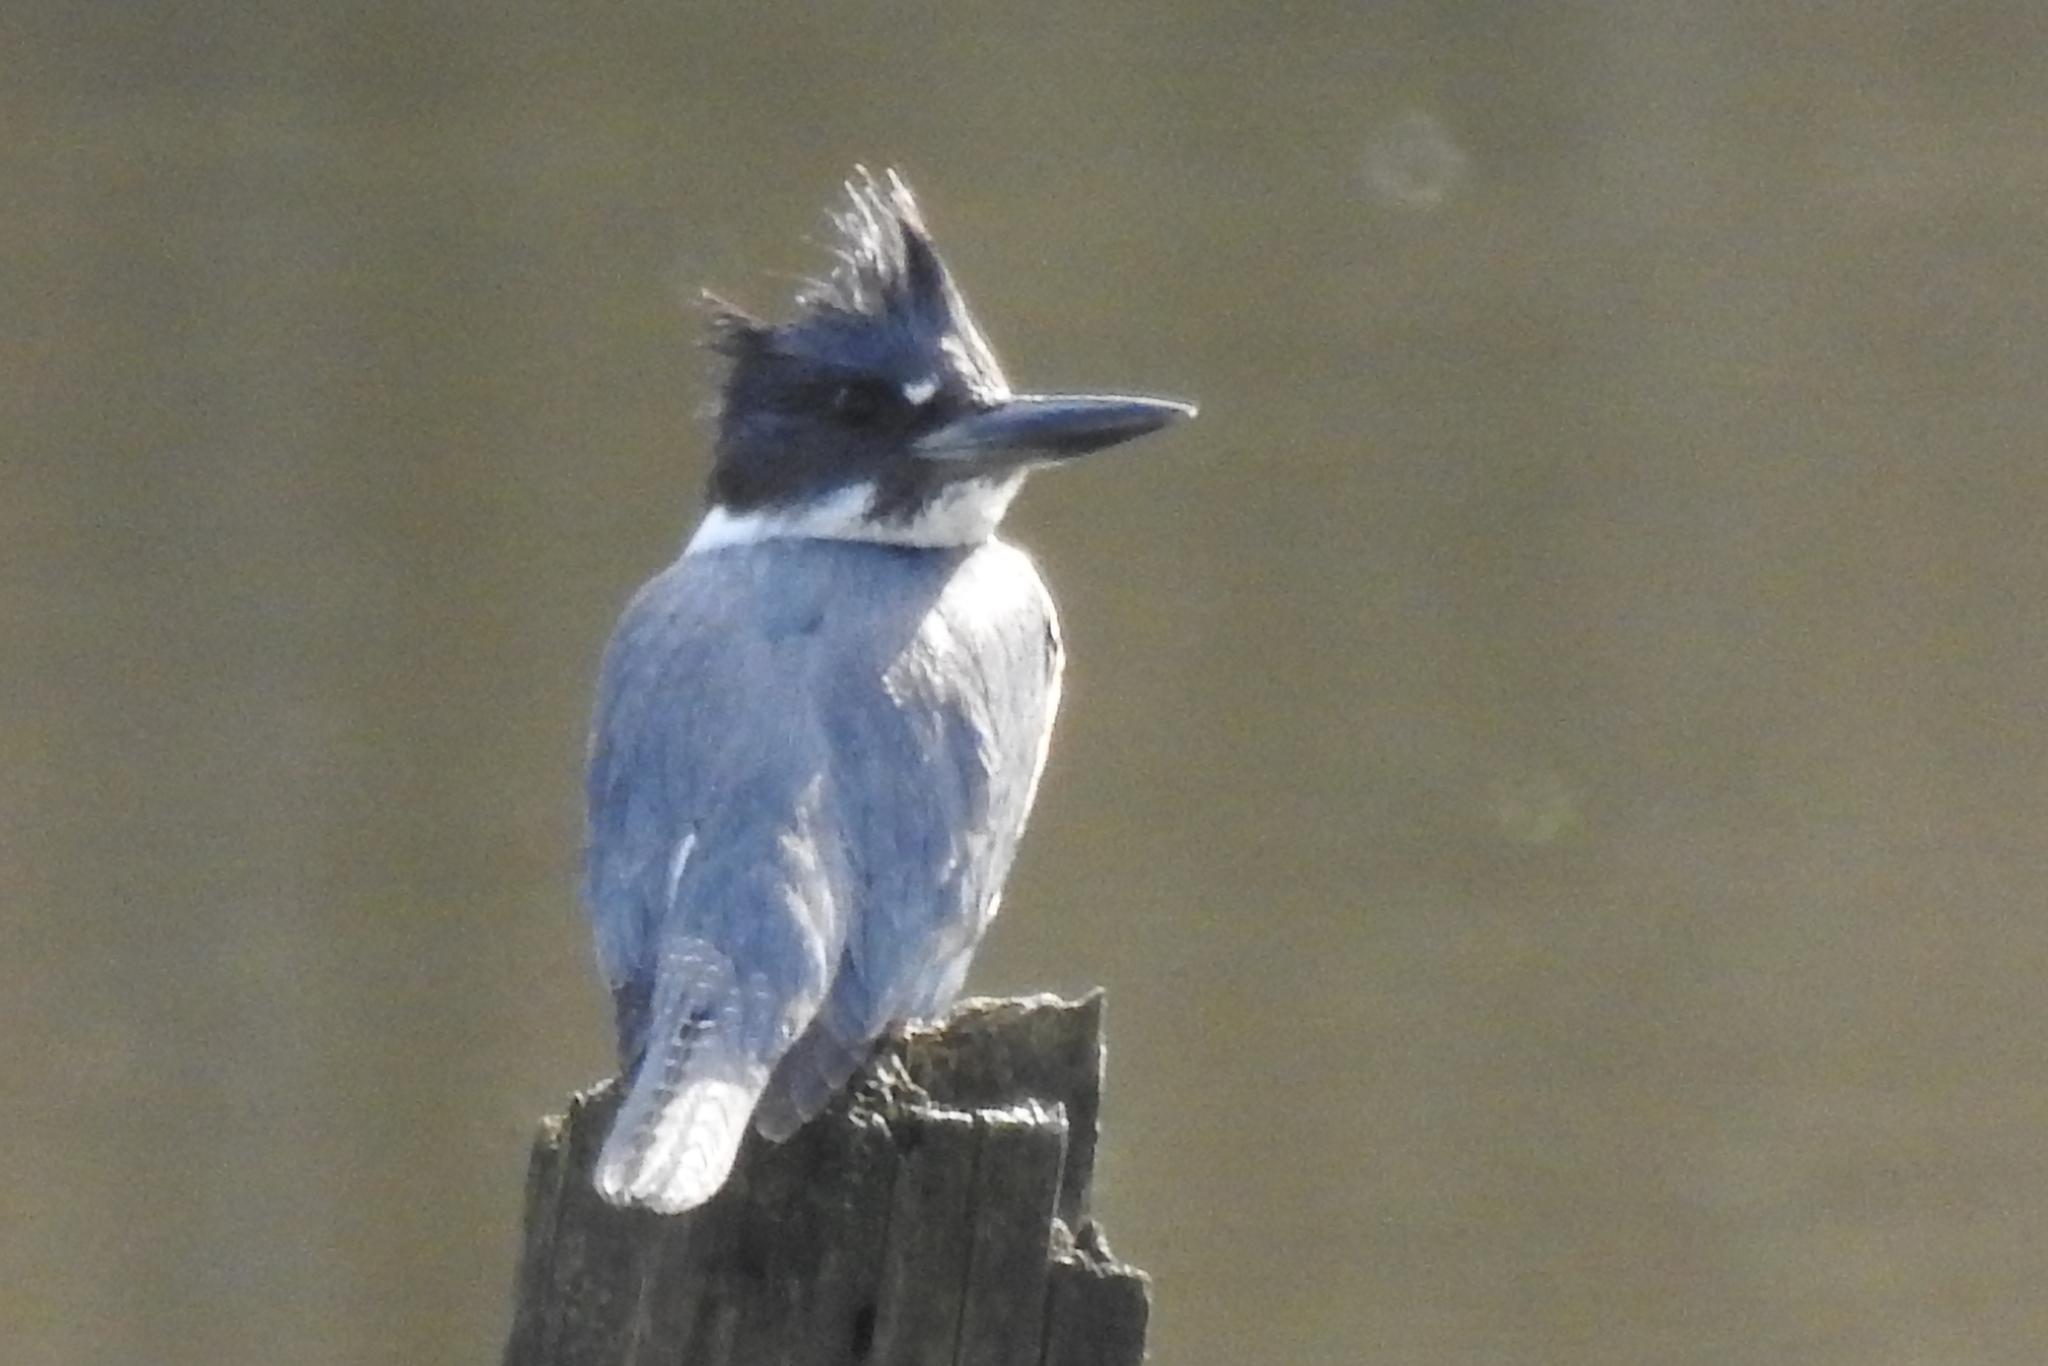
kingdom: Animalia
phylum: Chordata
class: Aves
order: Coraciiformes
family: Alcedinidae
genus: Megaceryle
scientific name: Megaceryle alcyon
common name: Belted kingfisher
